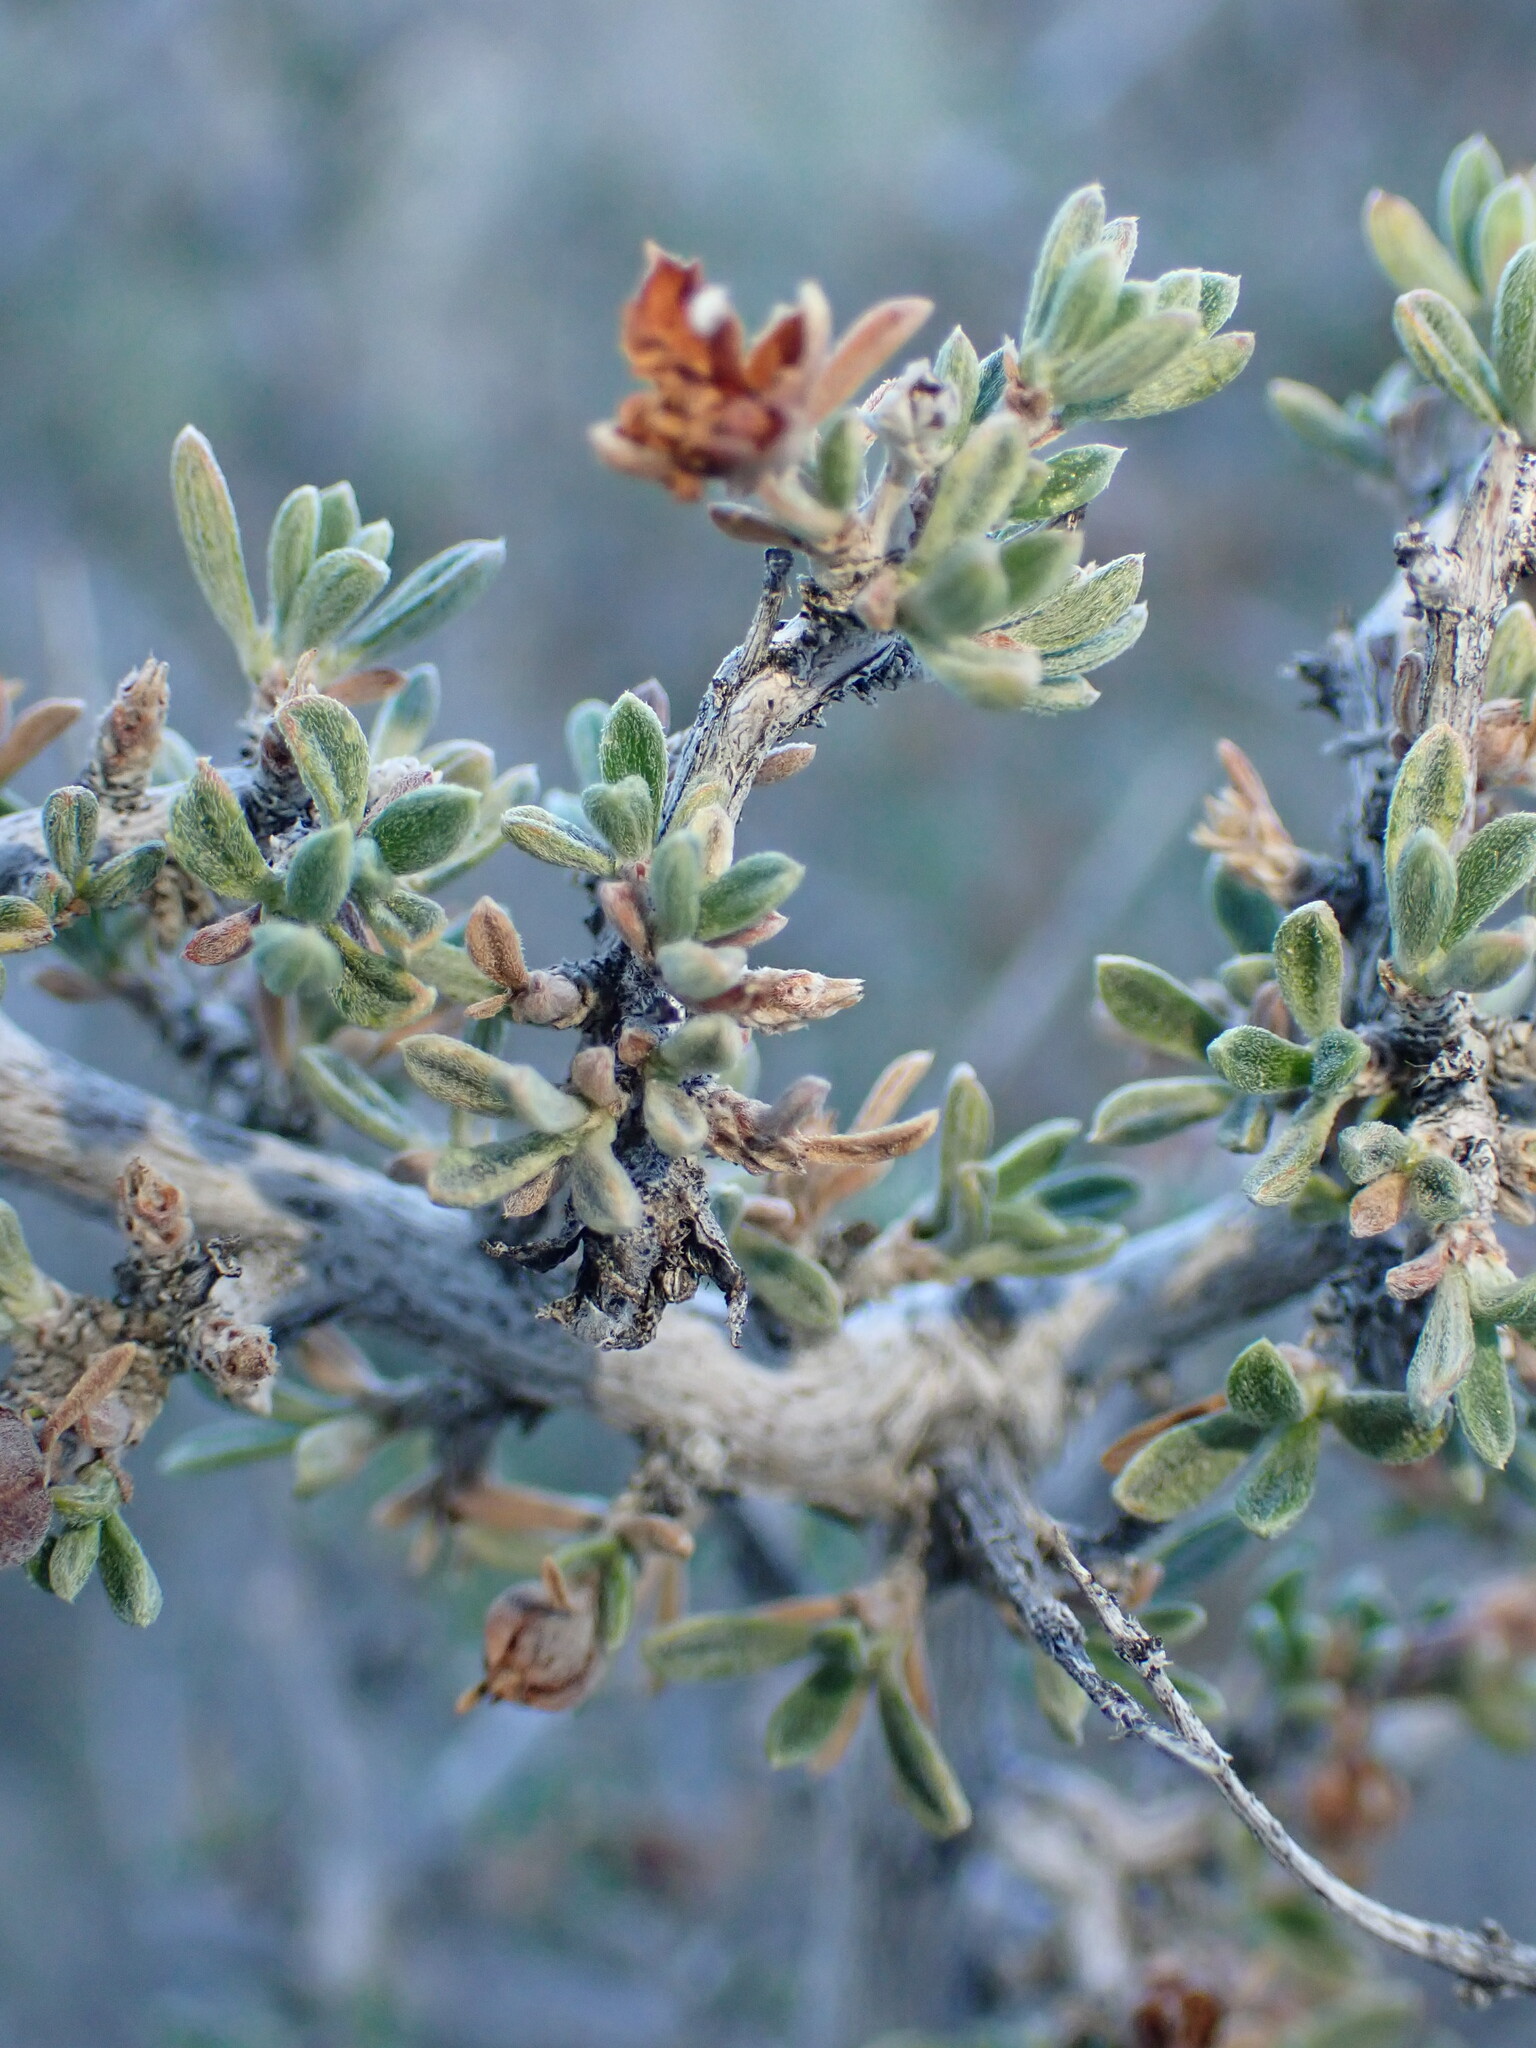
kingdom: Plantae
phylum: Tracheophyta
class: Magnoliopsida
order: Rosales
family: Rosaceae
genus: Coleogyne
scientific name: Coleogyne ramosissima
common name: Blackbrush
